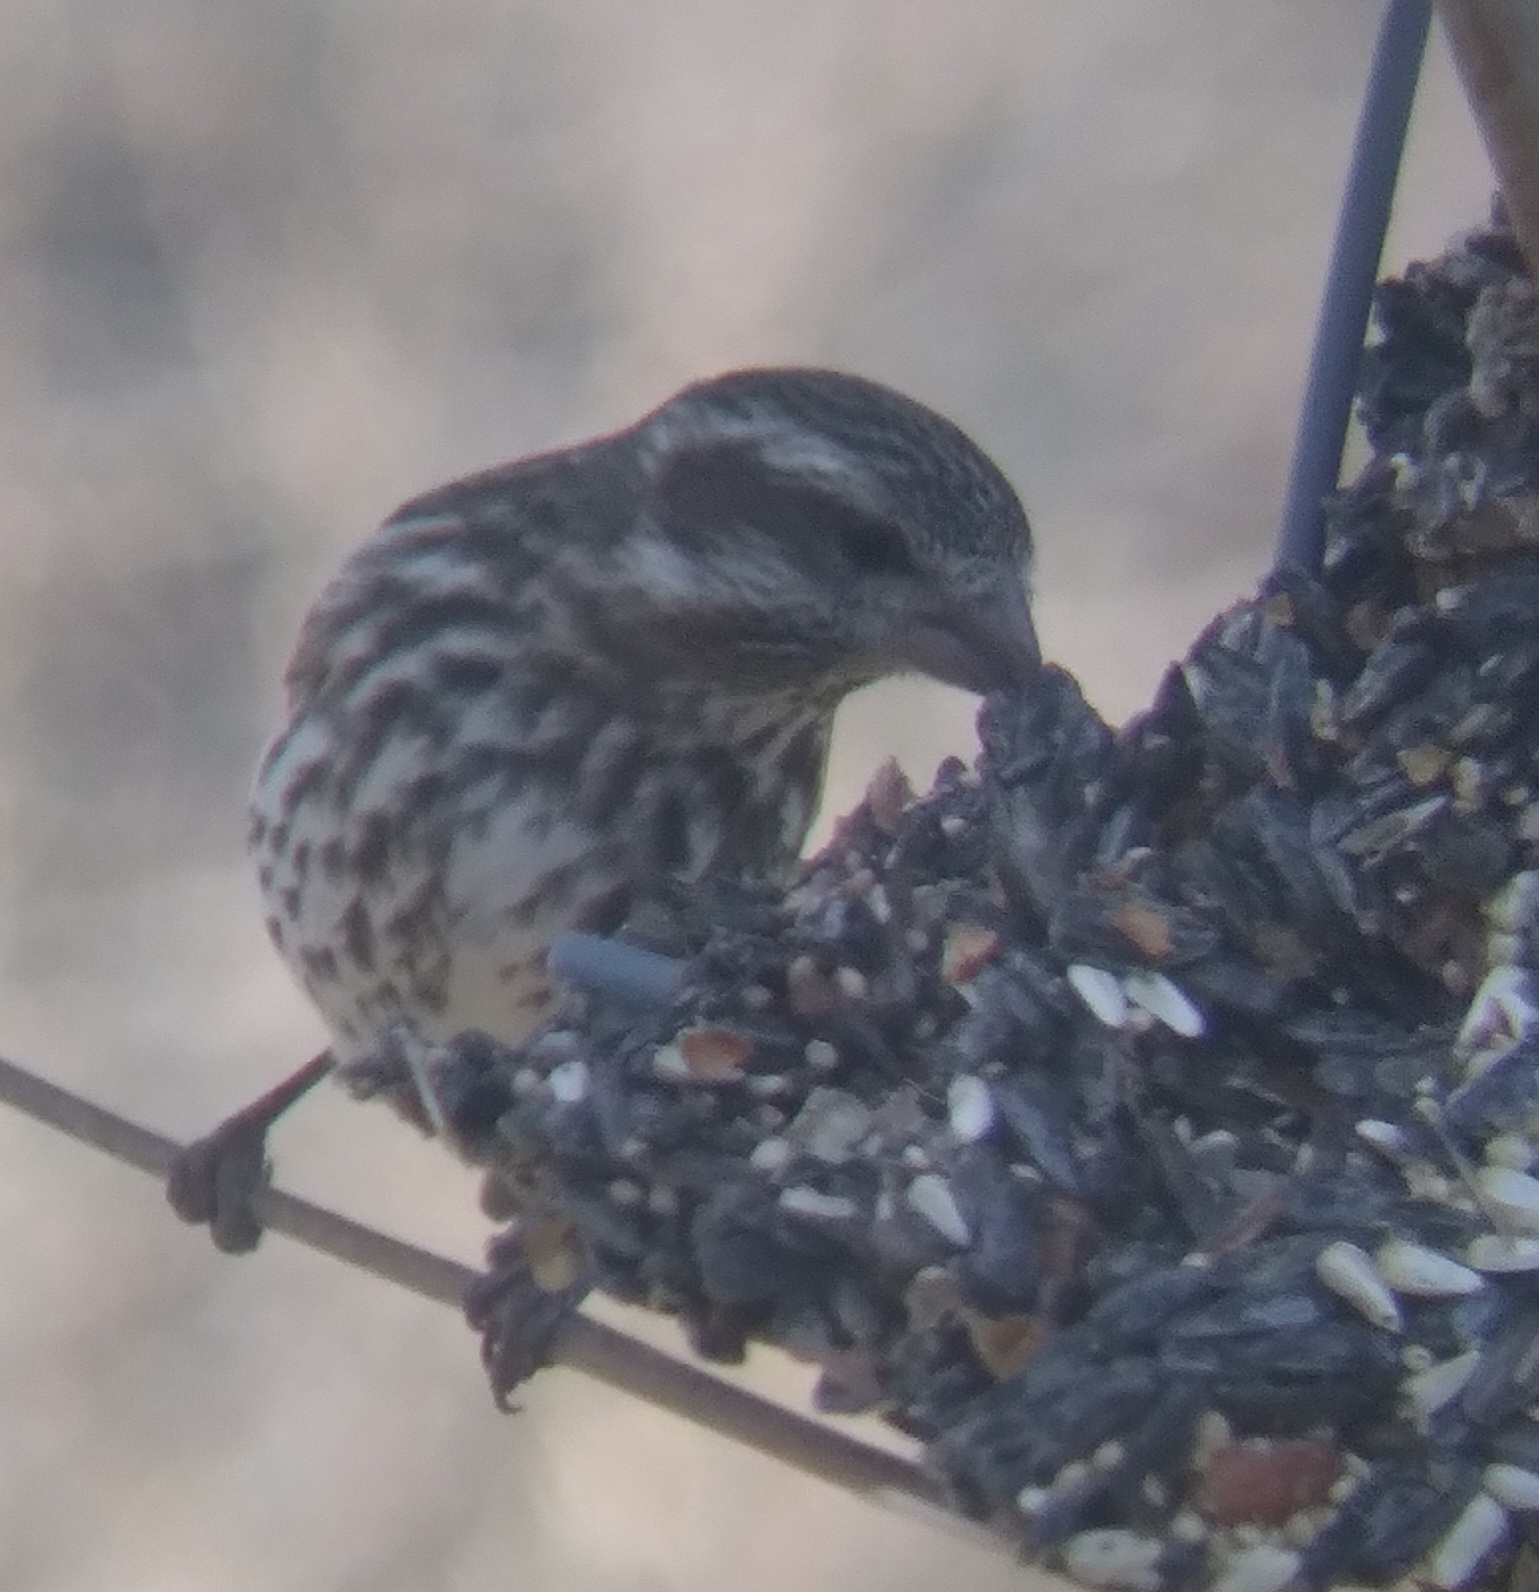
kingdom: Animalia
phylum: Chordata
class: Aves
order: Passeriformes
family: Fringillidae
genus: Haemorhous
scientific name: Haemorhous purpureus
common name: Purple finch
